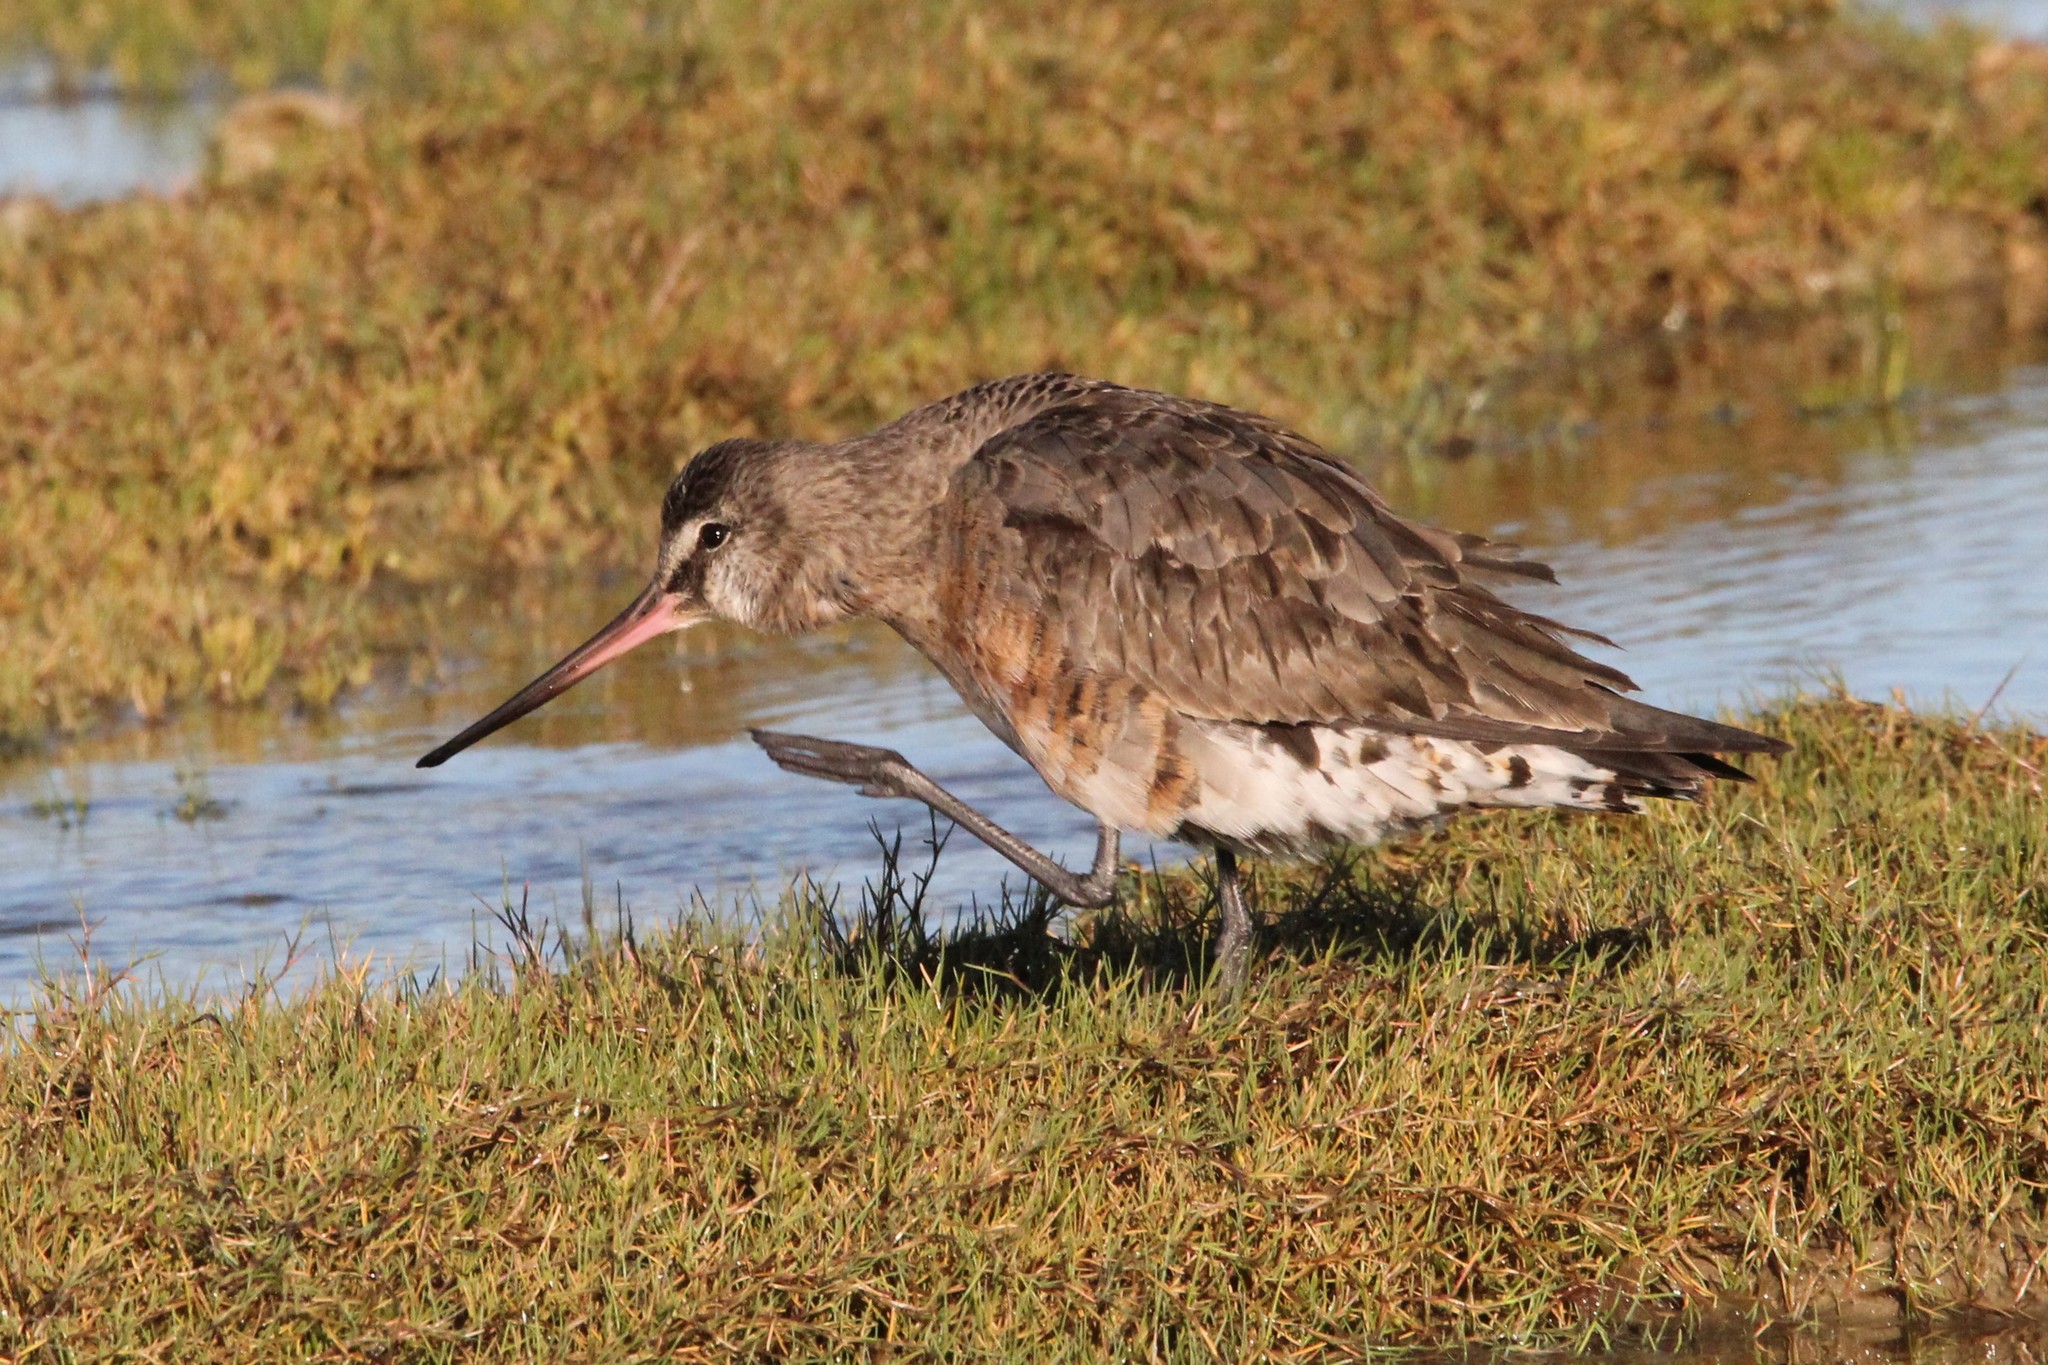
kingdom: Animalia
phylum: Chordata
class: Aves
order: Charadriiformes
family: Scolopacidae
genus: Limosa
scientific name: Limosa haemastica
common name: Hudsonian godwit
